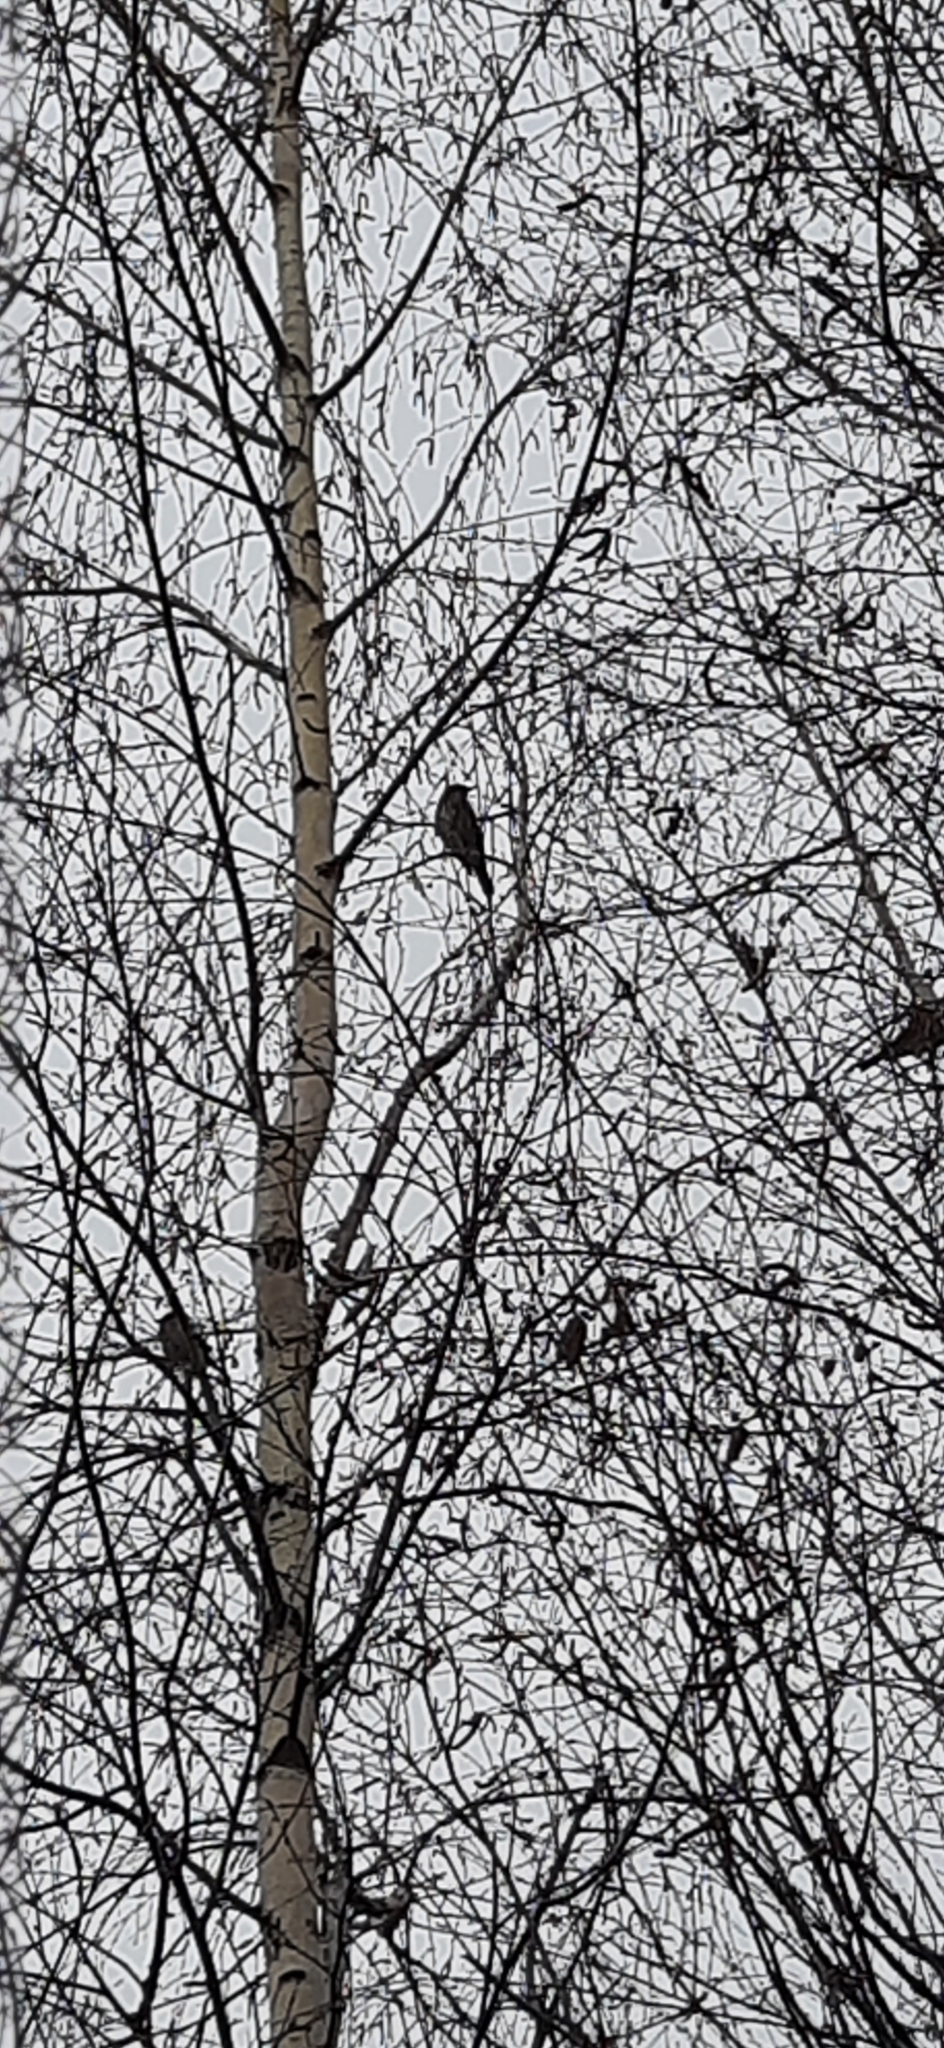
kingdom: Animalia
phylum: Chordata
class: Aves
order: Passeriformes
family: Turdidae
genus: Turdus
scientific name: Turdus pilaris
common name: Fieldfare
